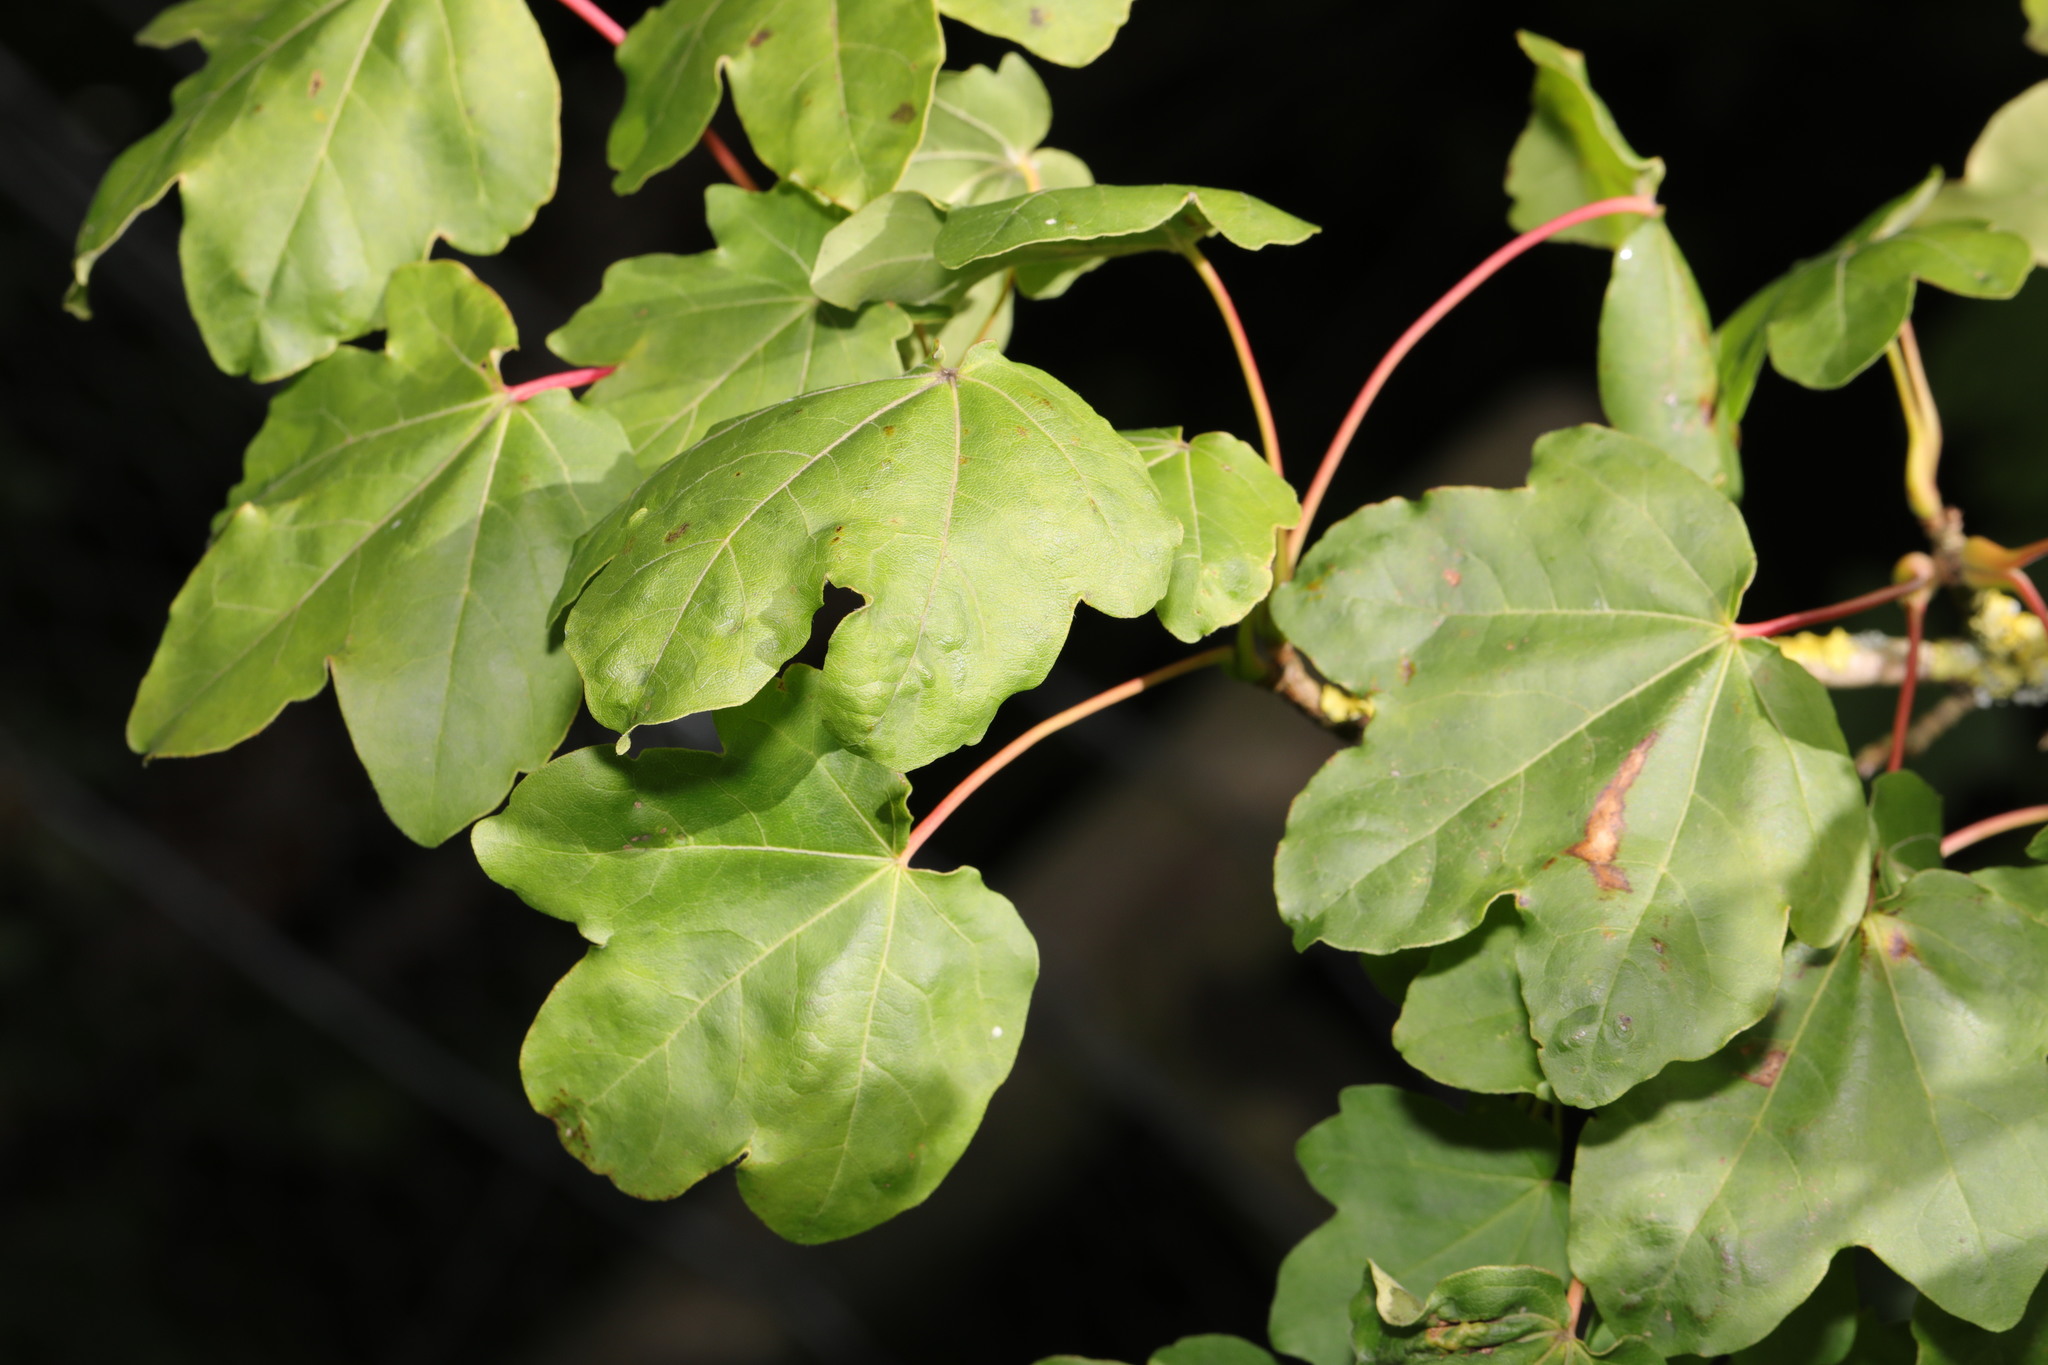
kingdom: Plantae
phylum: Tracheophyta
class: Magnoliopsida
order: Sapindales
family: Sapindaceae
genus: Acer
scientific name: Acer campestre
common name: Field maple
